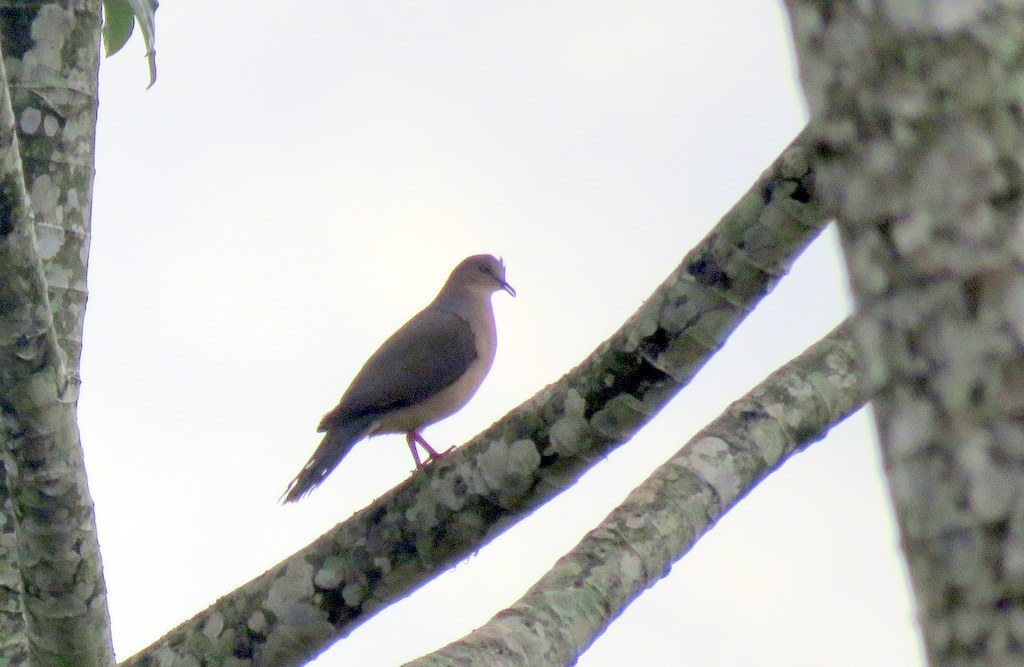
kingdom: Animalia
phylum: Chordata
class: Aves
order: Columbiformes
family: Columbidae
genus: Leptotila
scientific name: Leptotila verreauxi
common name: White-tipped dove
